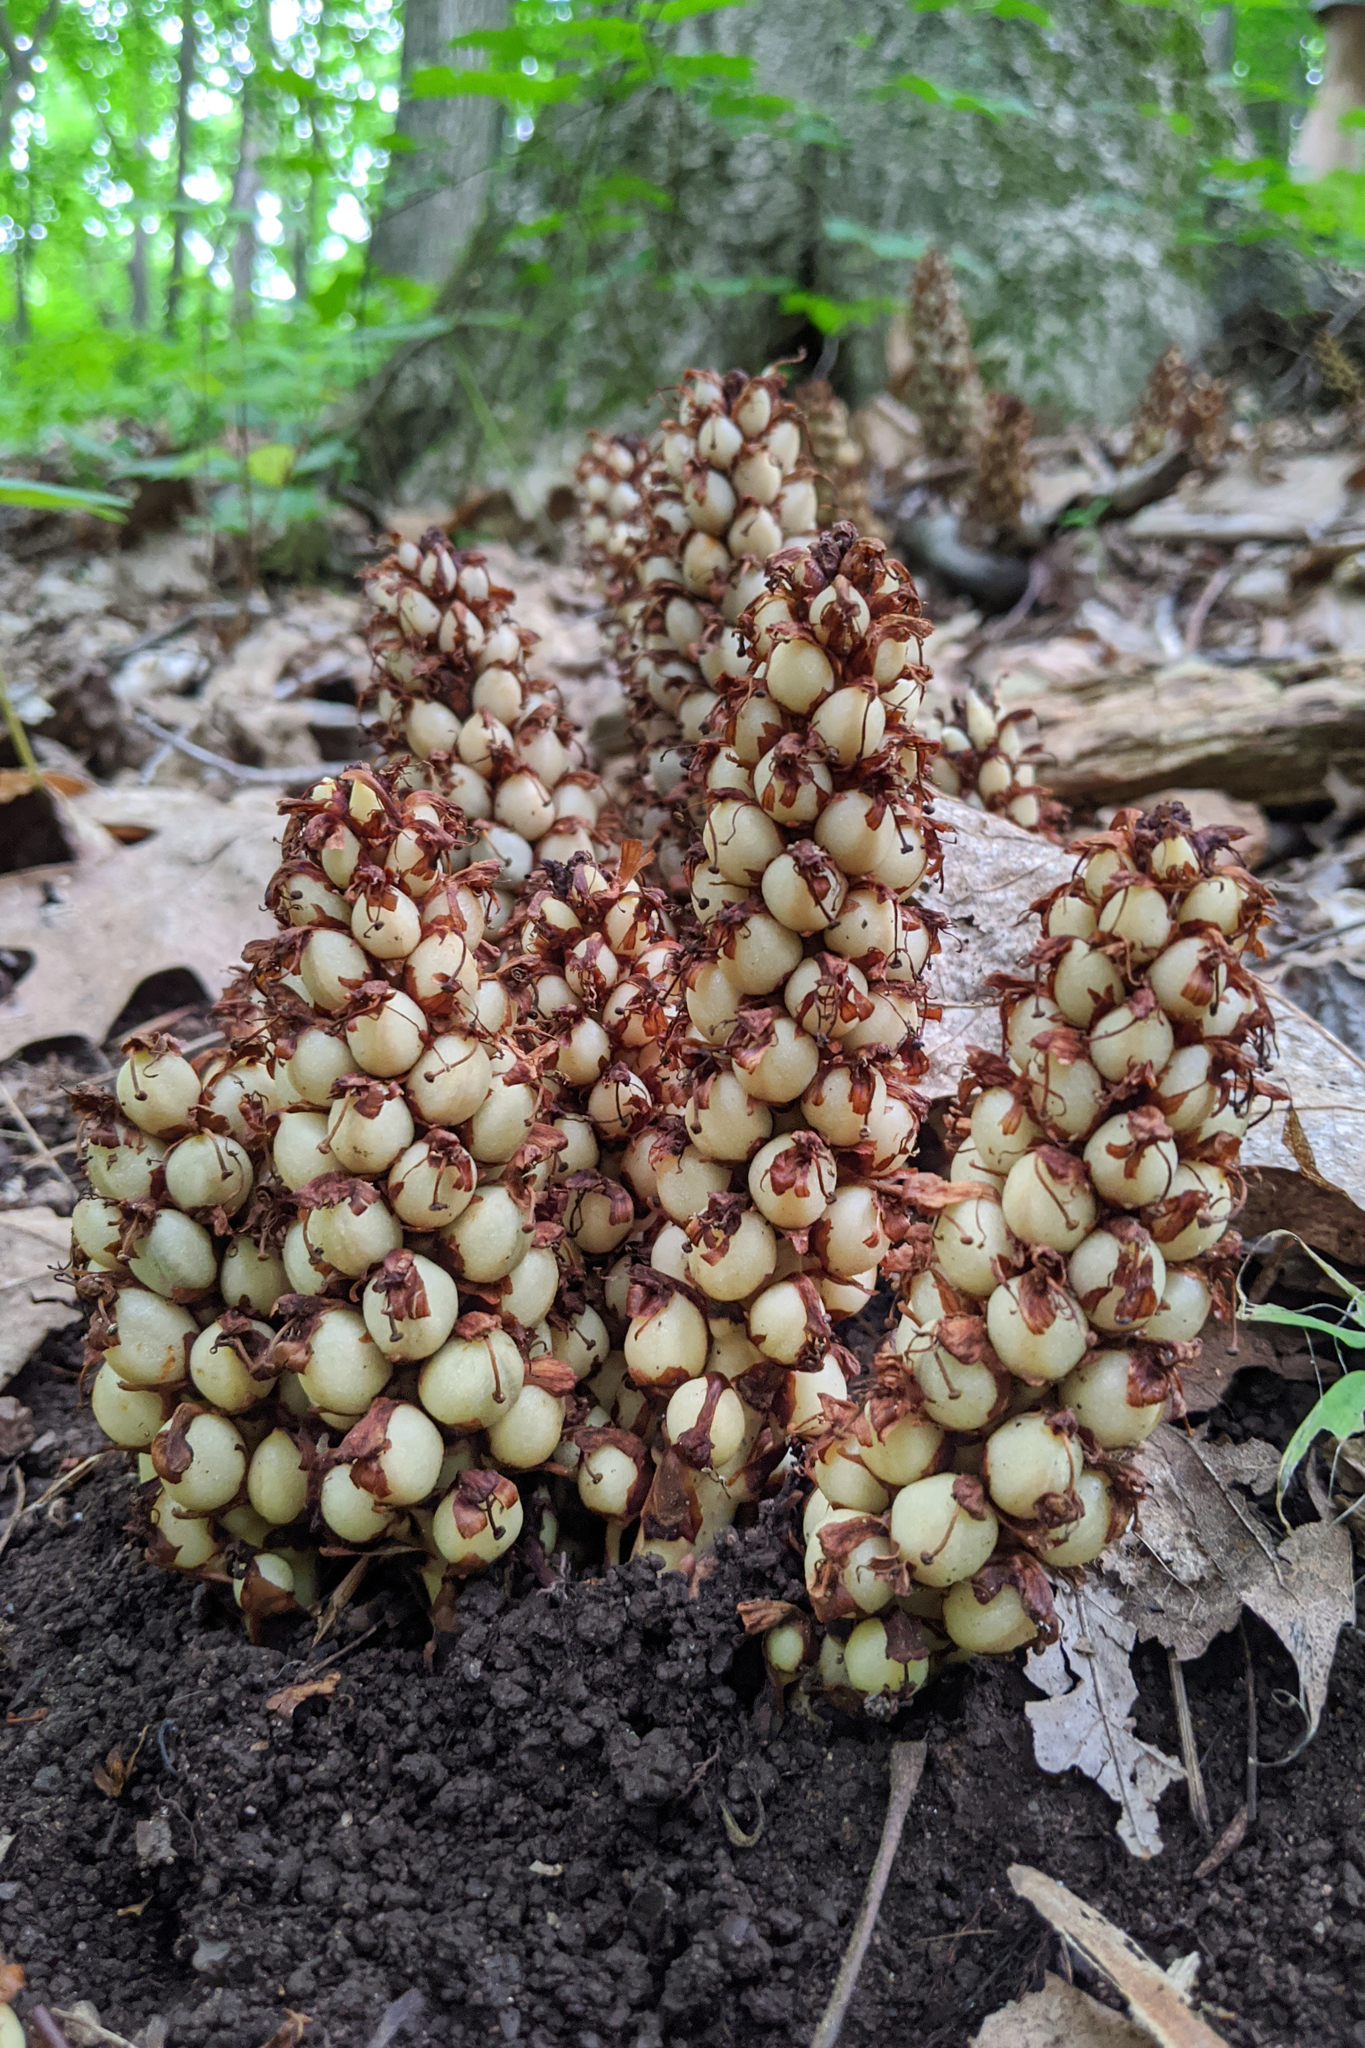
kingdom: Plantae
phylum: Tracheophyta
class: Magnoliopsida
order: Lamiales
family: Orobanchaceae
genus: Conopholis
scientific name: Conopholis americana
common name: American cancer-root
